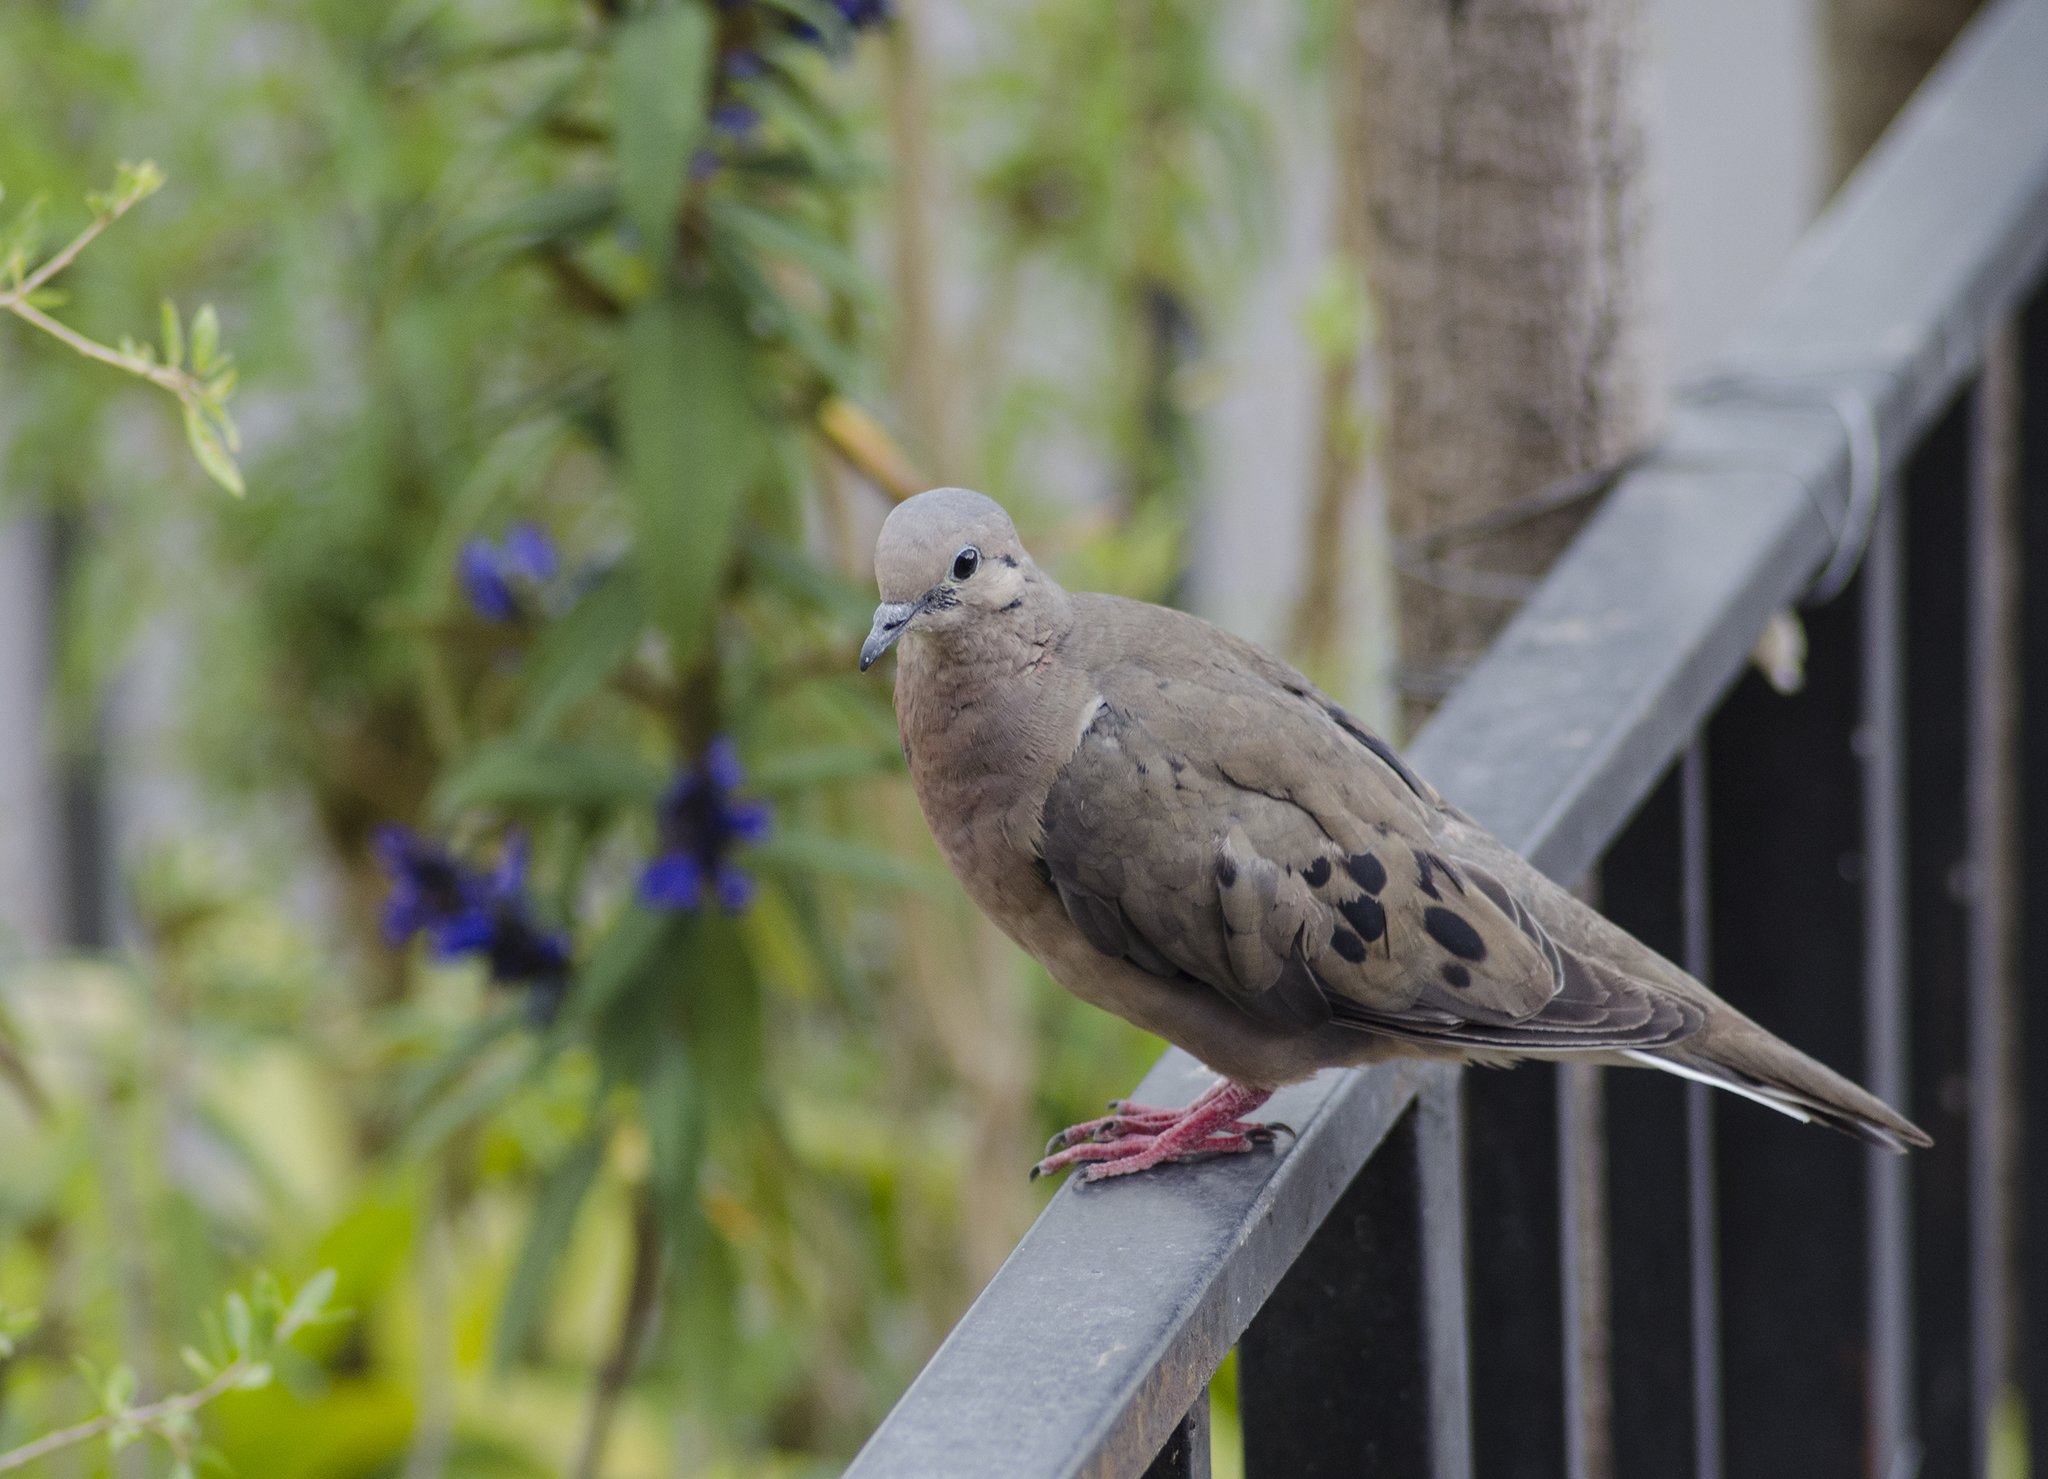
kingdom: Animalia
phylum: Chordata
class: Aves
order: Columbiformes
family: Columbidae
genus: Zenaida
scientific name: Zenaida auriculata
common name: Eared dove
